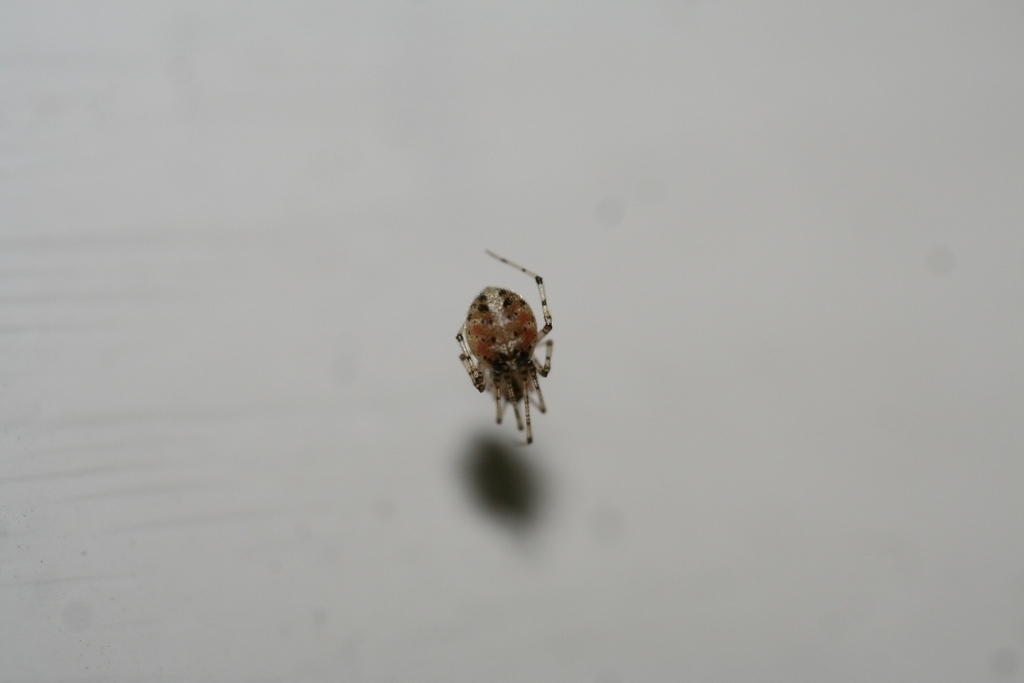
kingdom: Animalia
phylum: Arthropoda
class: Arachnida
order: Araneae
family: Theridiidae
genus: Platnickina
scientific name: Platnickina tincta
